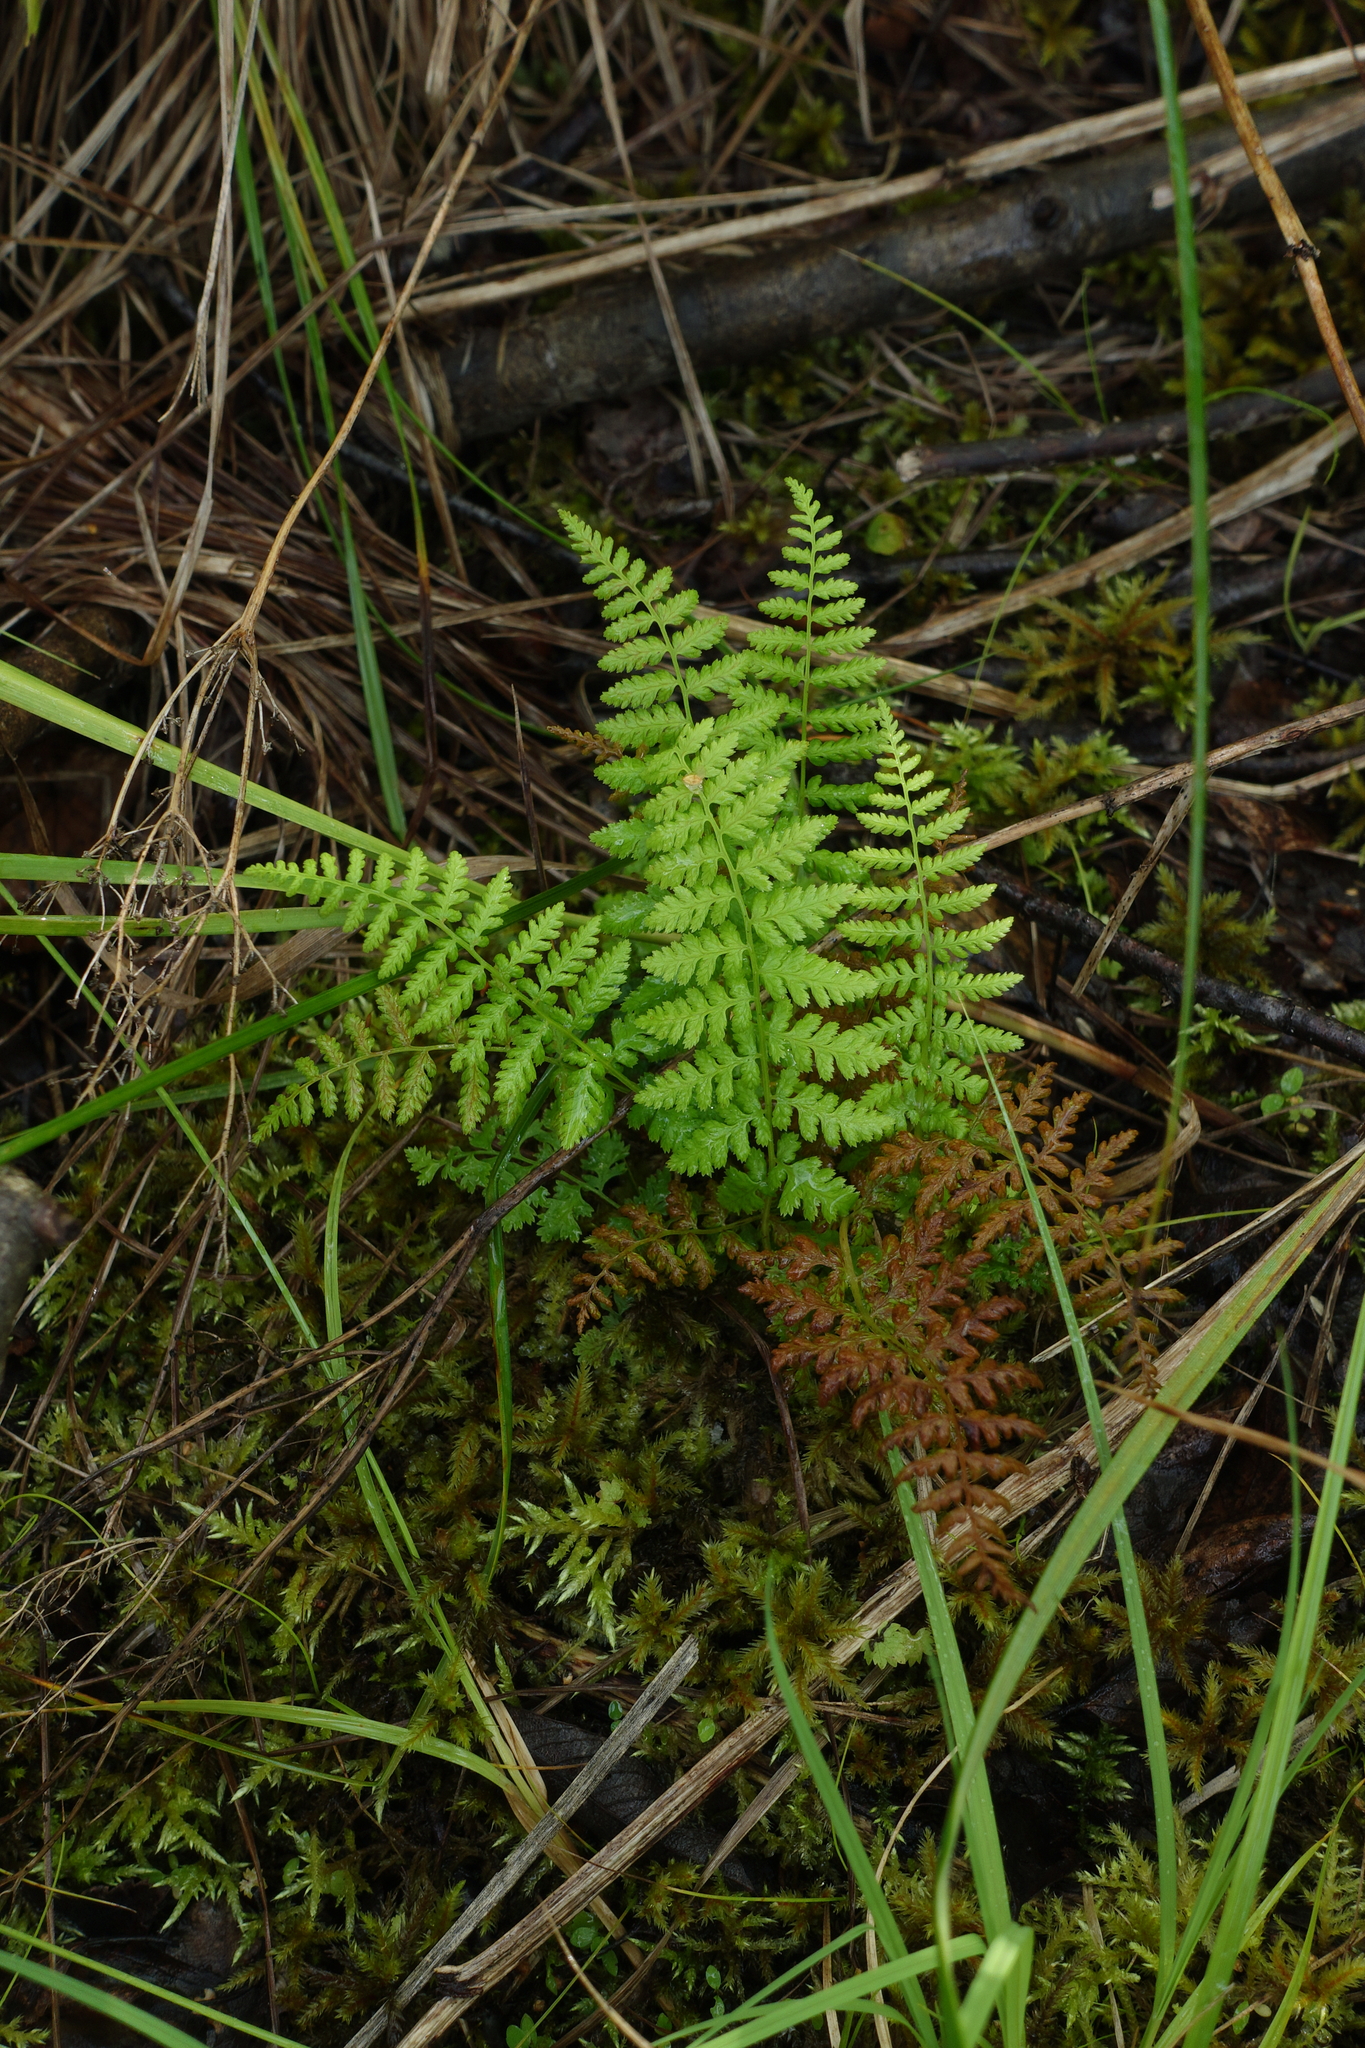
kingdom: Plantae
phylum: Tracheophyta
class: Polypodiopsida
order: Polypodiales
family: Athyriaceae
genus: Athyrium
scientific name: Athyrium filix-femina
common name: Lady fern
